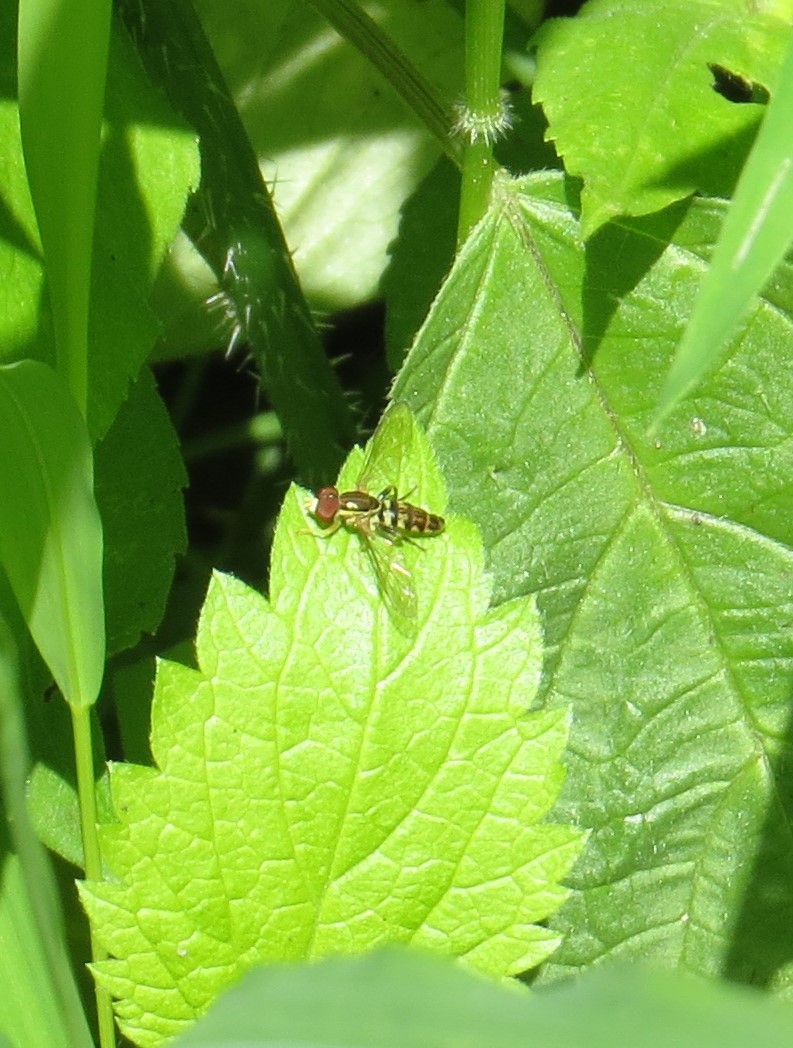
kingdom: Animalia
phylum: Arthropoda
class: Insecta
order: Diptera
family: Syrphidae
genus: Toxomerus
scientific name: Toxomerus geminatus
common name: Eastern calligrapher
